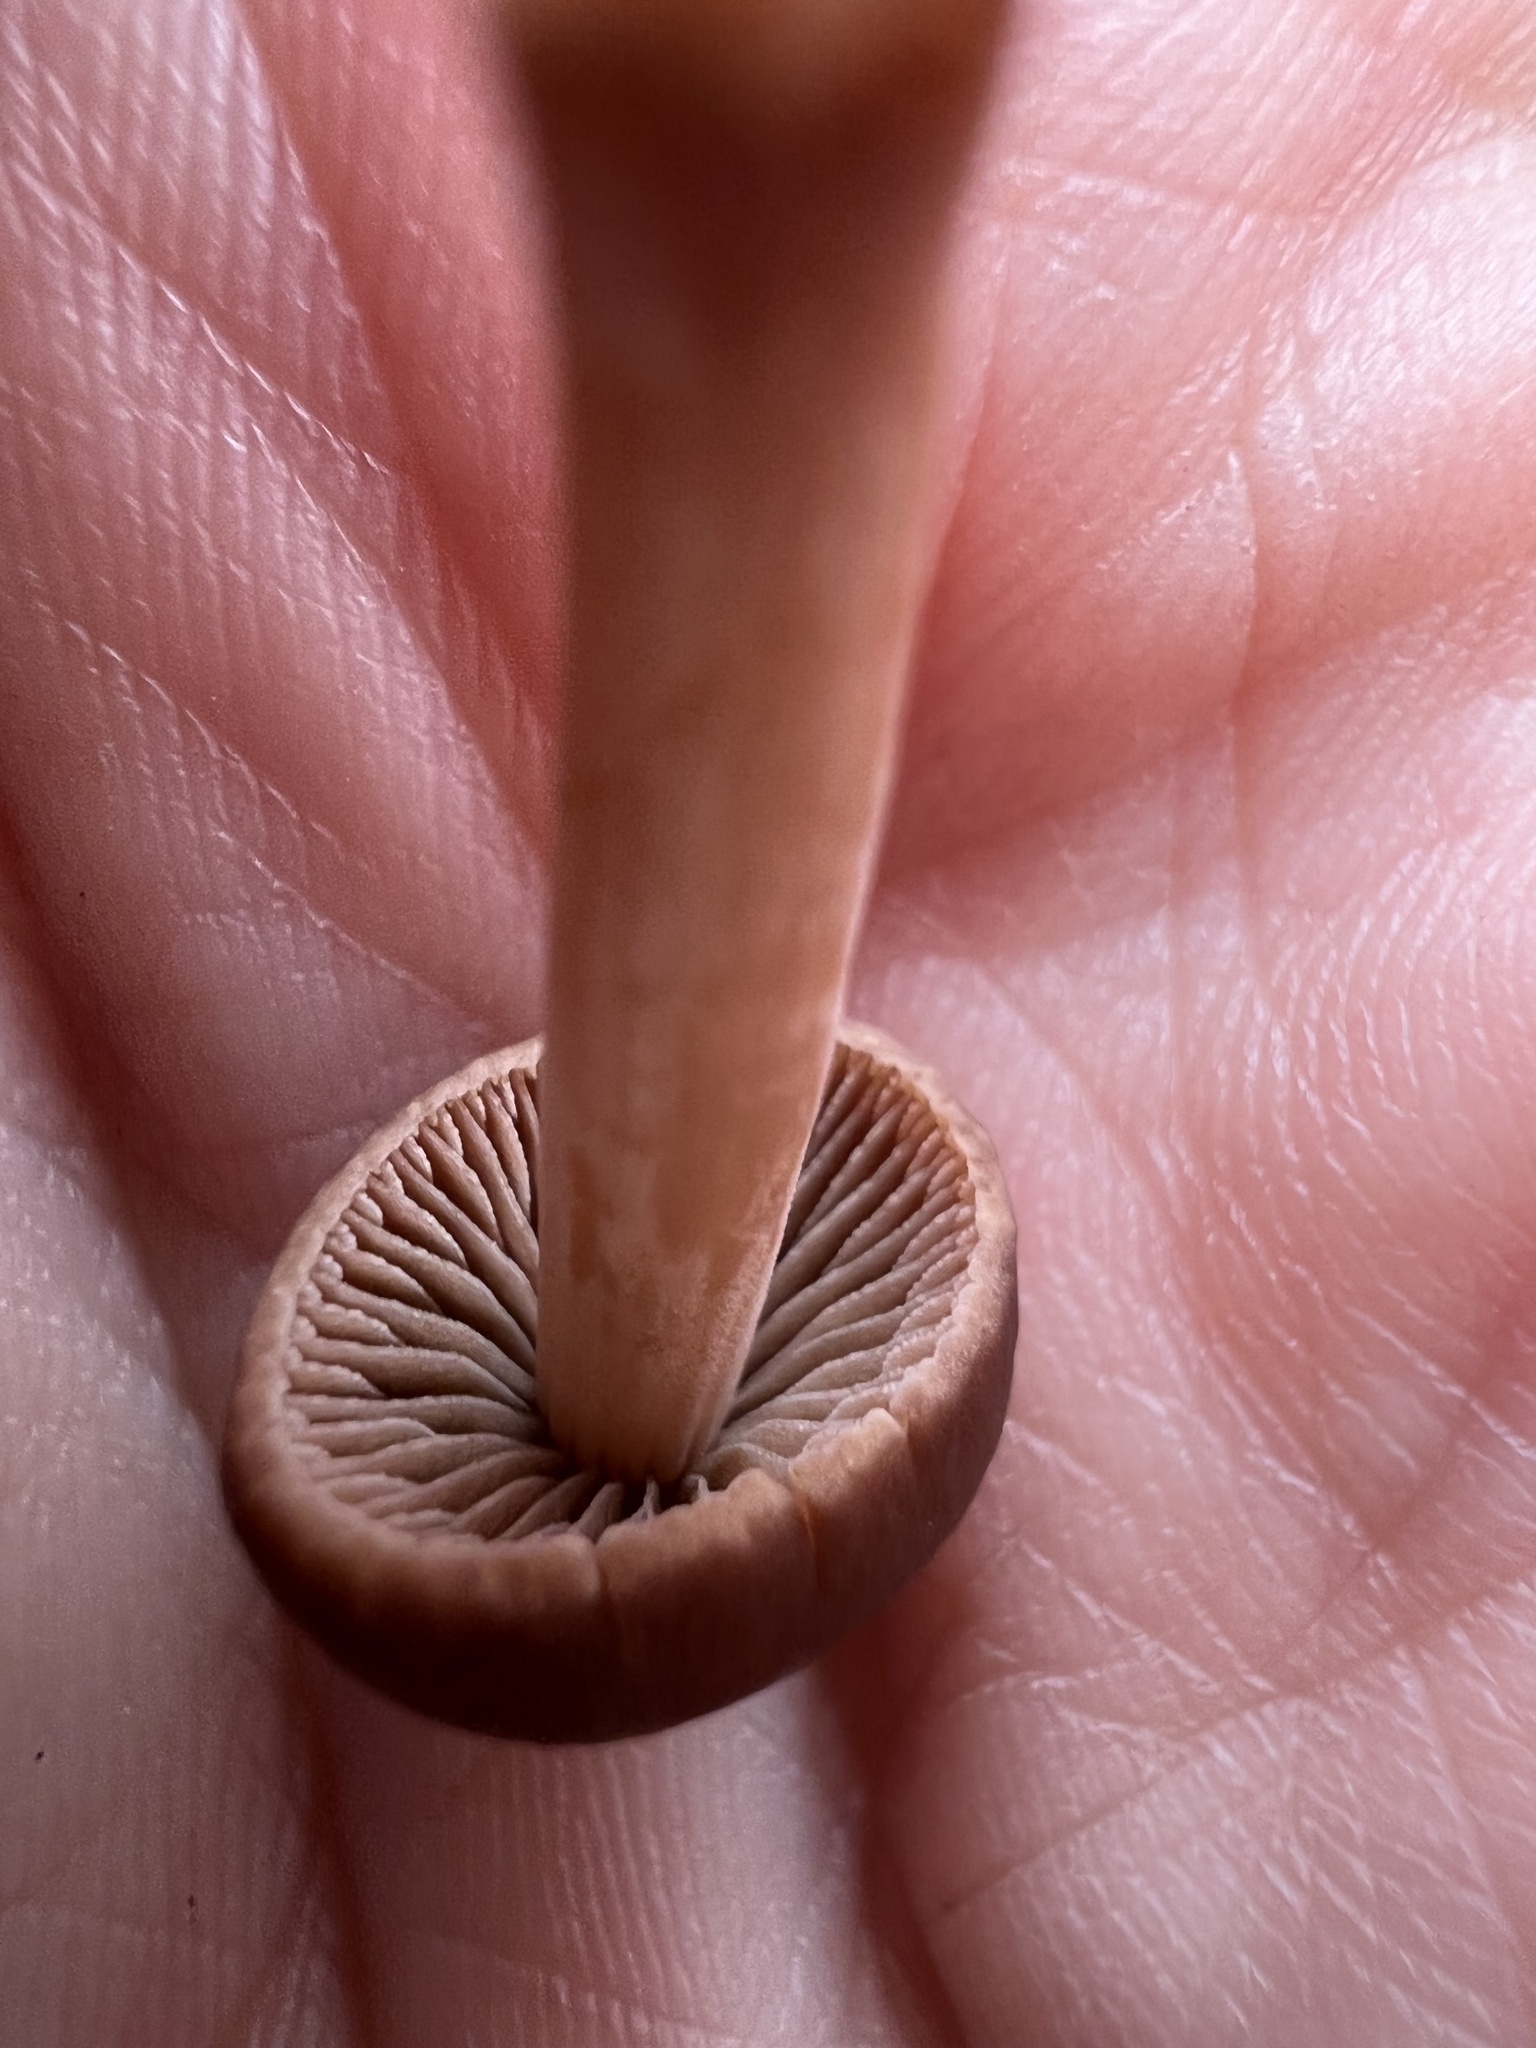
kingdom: Fungi
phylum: Basidiomycota
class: Agaricomycetes
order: Agaricales
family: Bolbitiaceae
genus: Panaeolina
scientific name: Panaeolina foenisecii
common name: Brown hay cap
